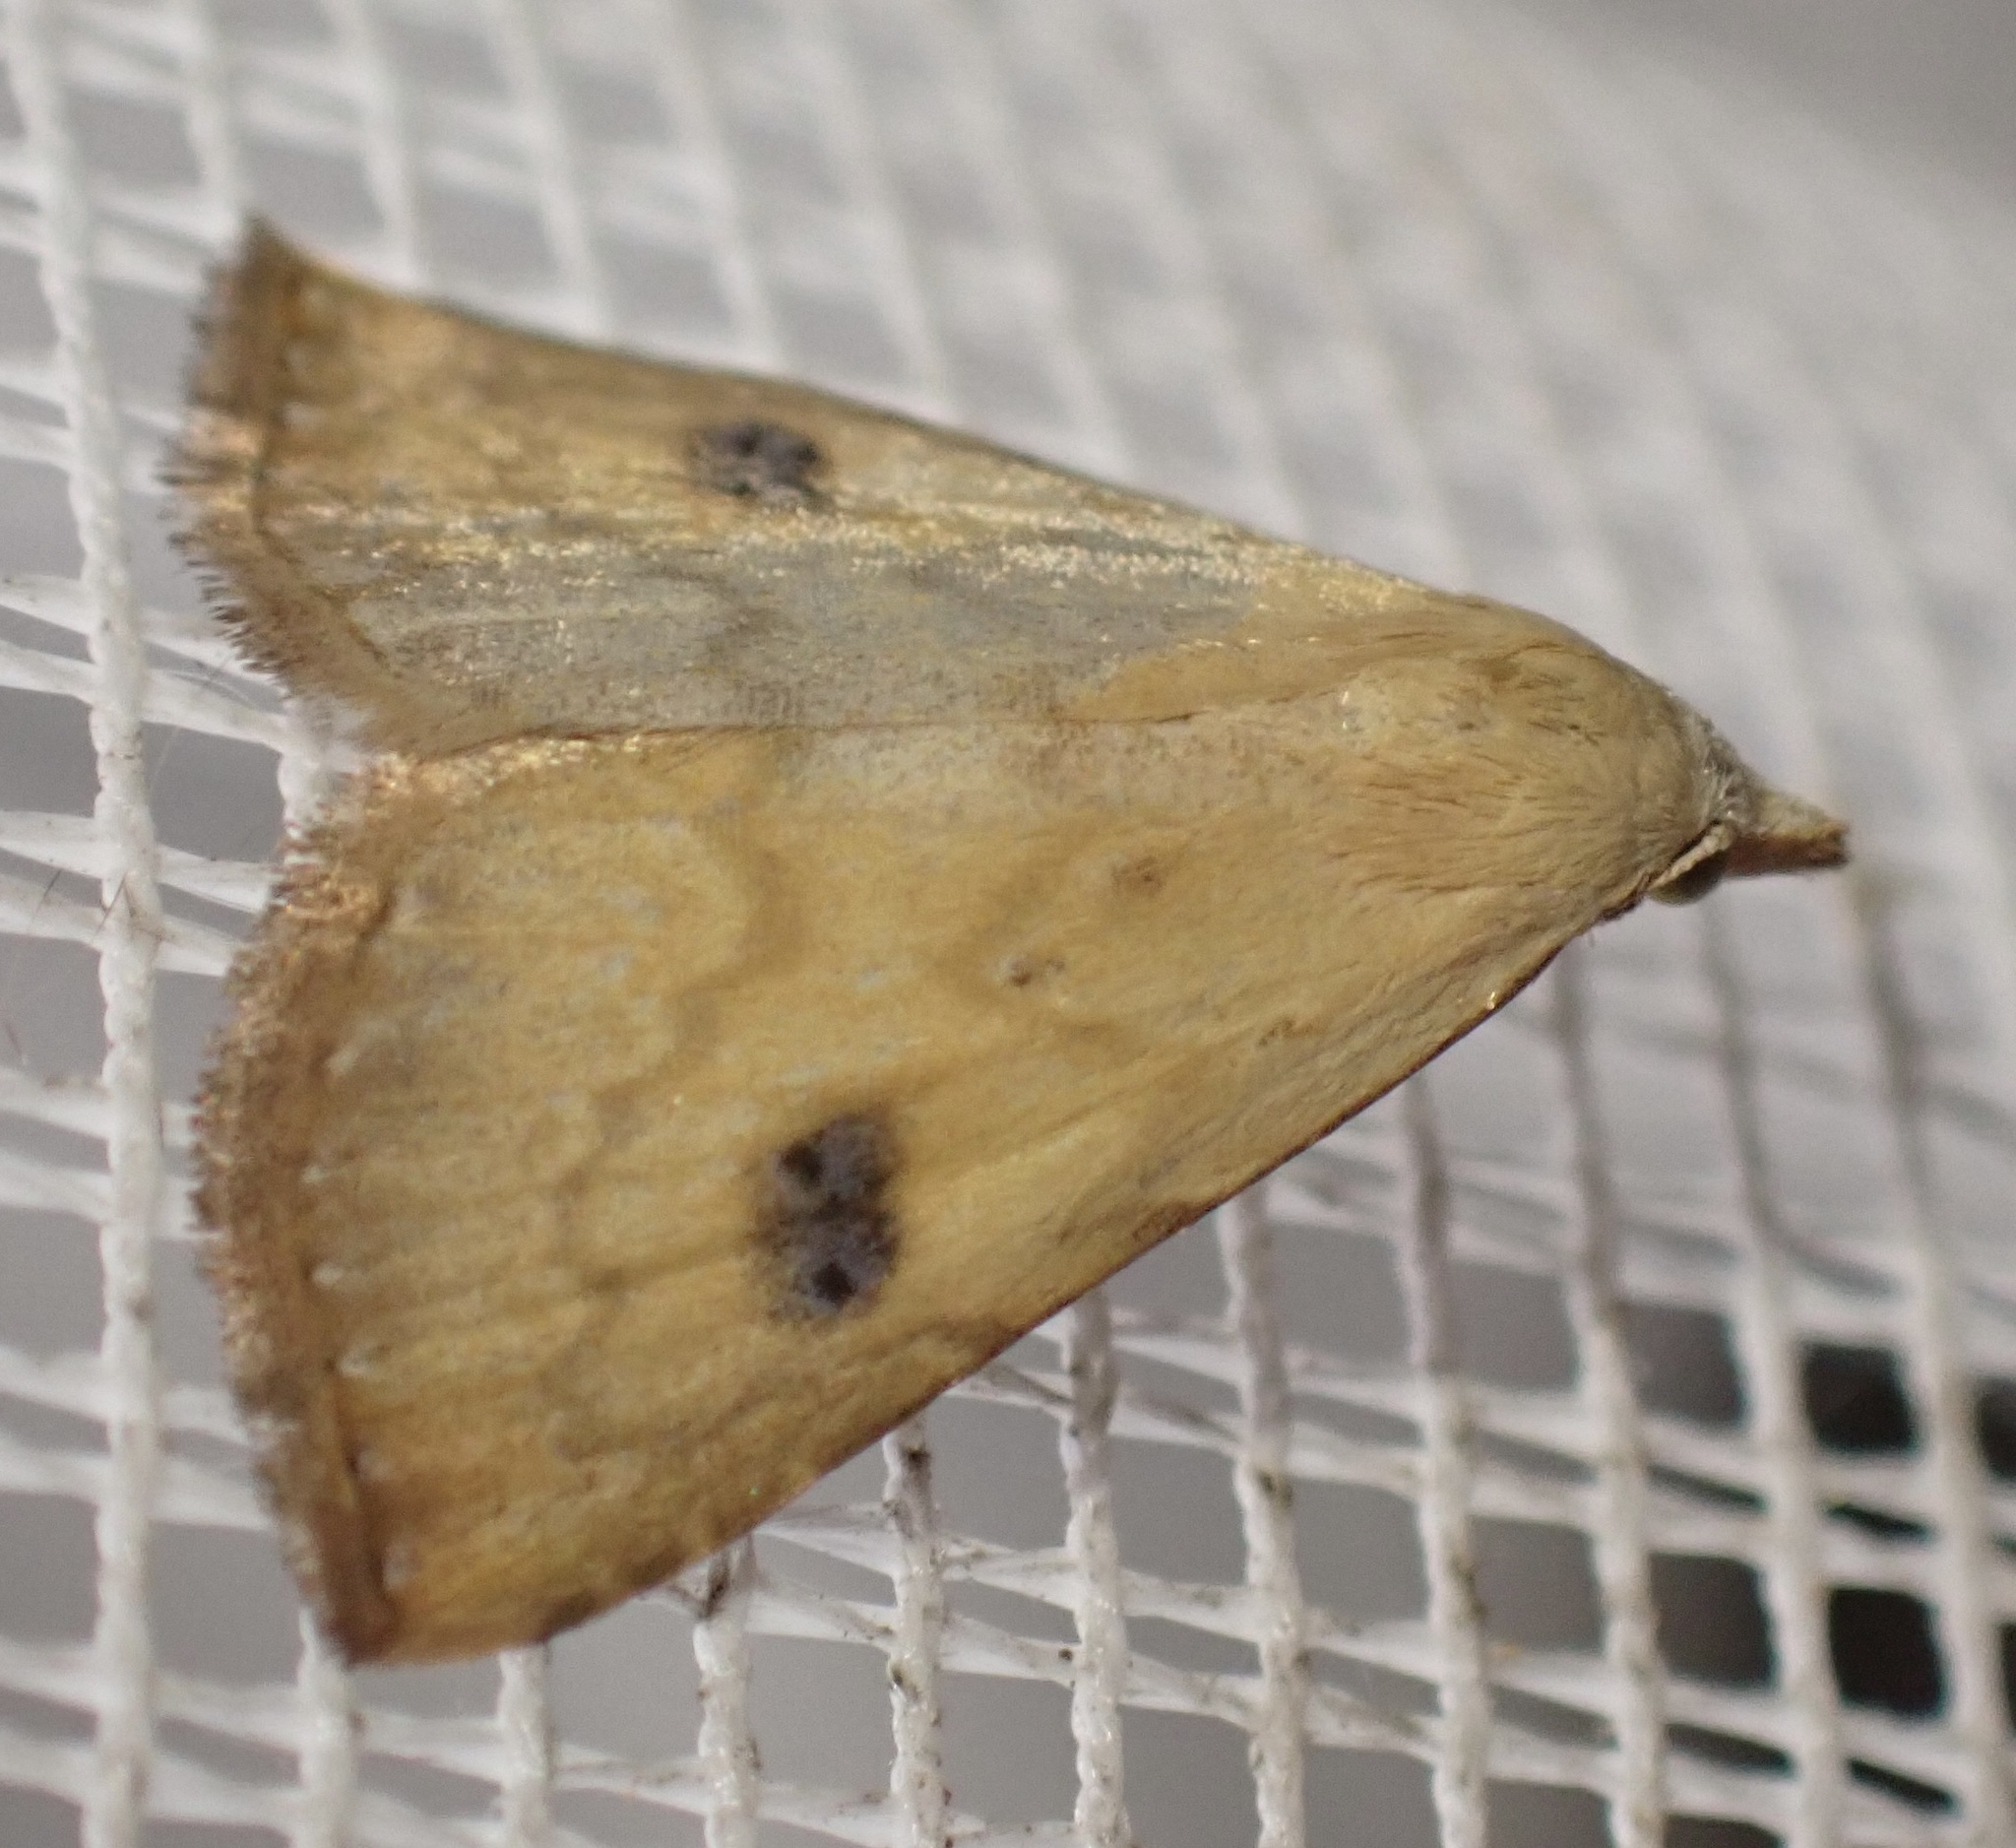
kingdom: Animalia
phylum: Arthropoda
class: Insecta
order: Lepidoptera
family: Erebidae
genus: Rivula
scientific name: Rivula sericealis
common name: Straw dot
